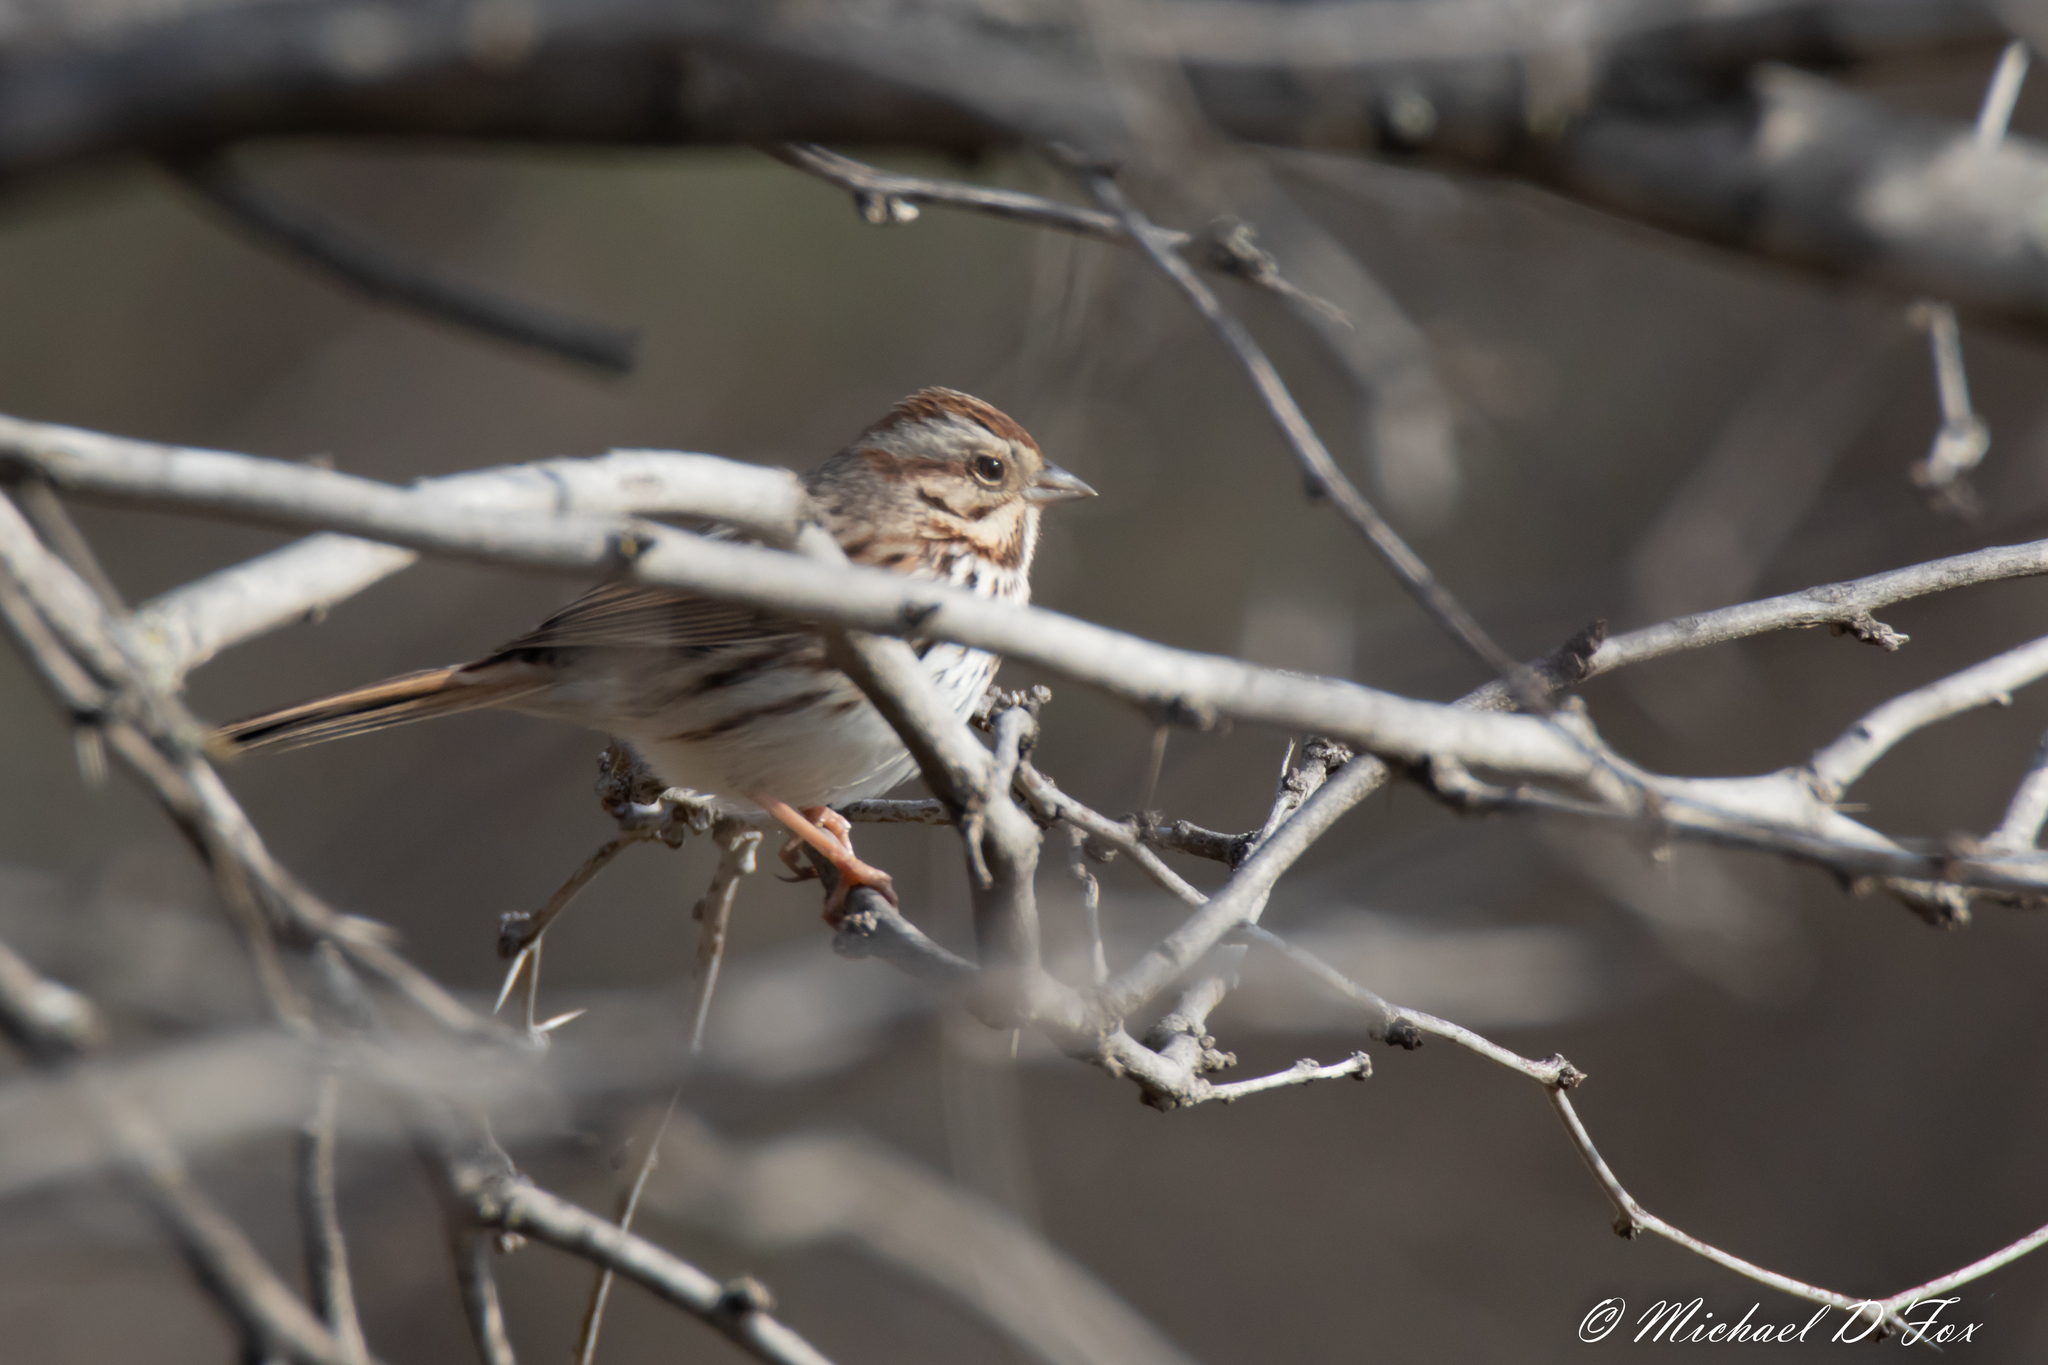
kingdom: Animalia
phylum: Chordata
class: Aves
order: Passeriformes
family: Passerellidae
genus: Melospiza
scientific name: Melospiza melodia
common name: Song sparrow
